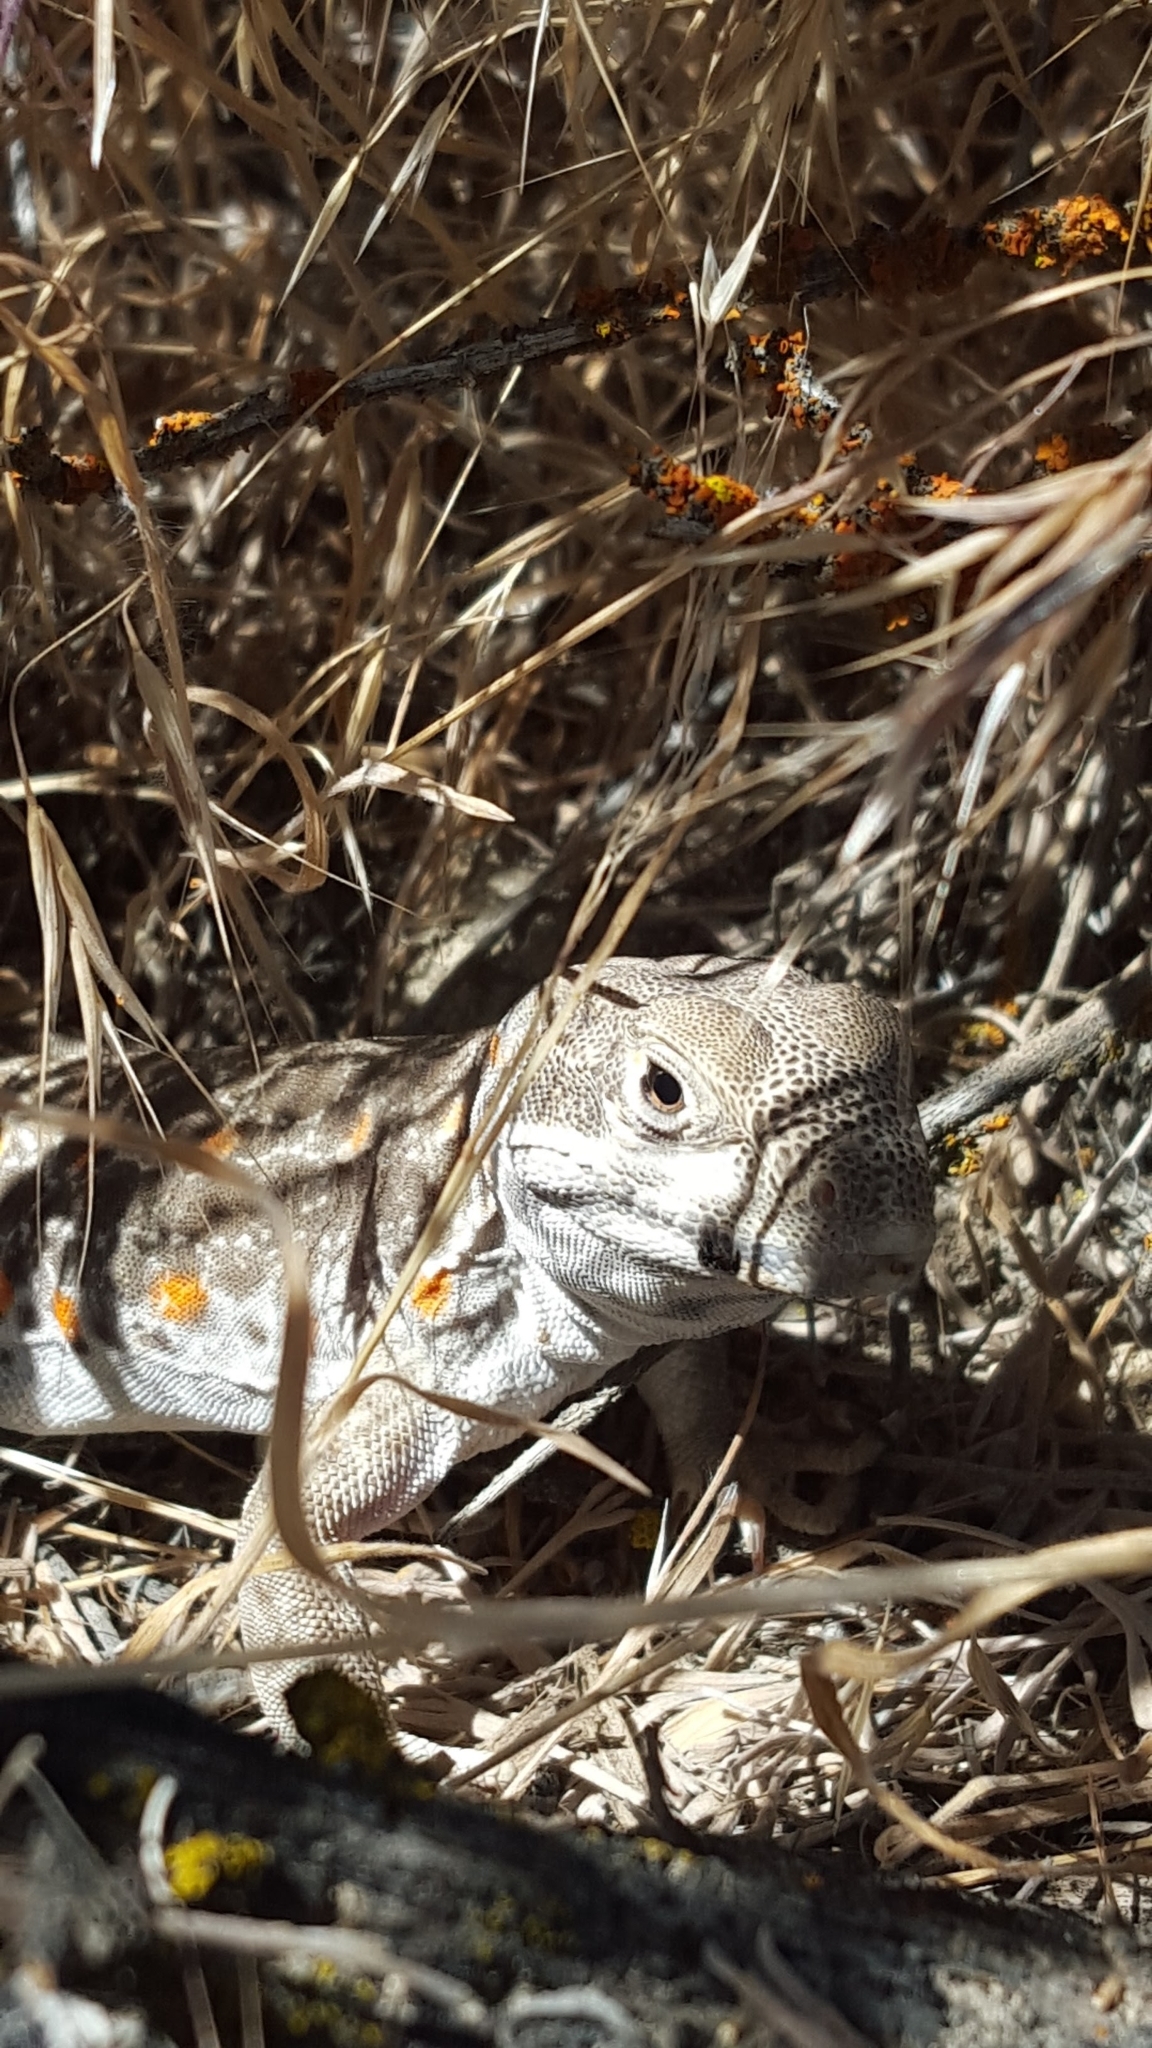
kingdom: Animalia
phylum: Chordata
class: Squamata
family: Crotaphytidae
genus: Gambelia
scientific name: Gambelia wislizenii
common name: Longnose leopard lizard
